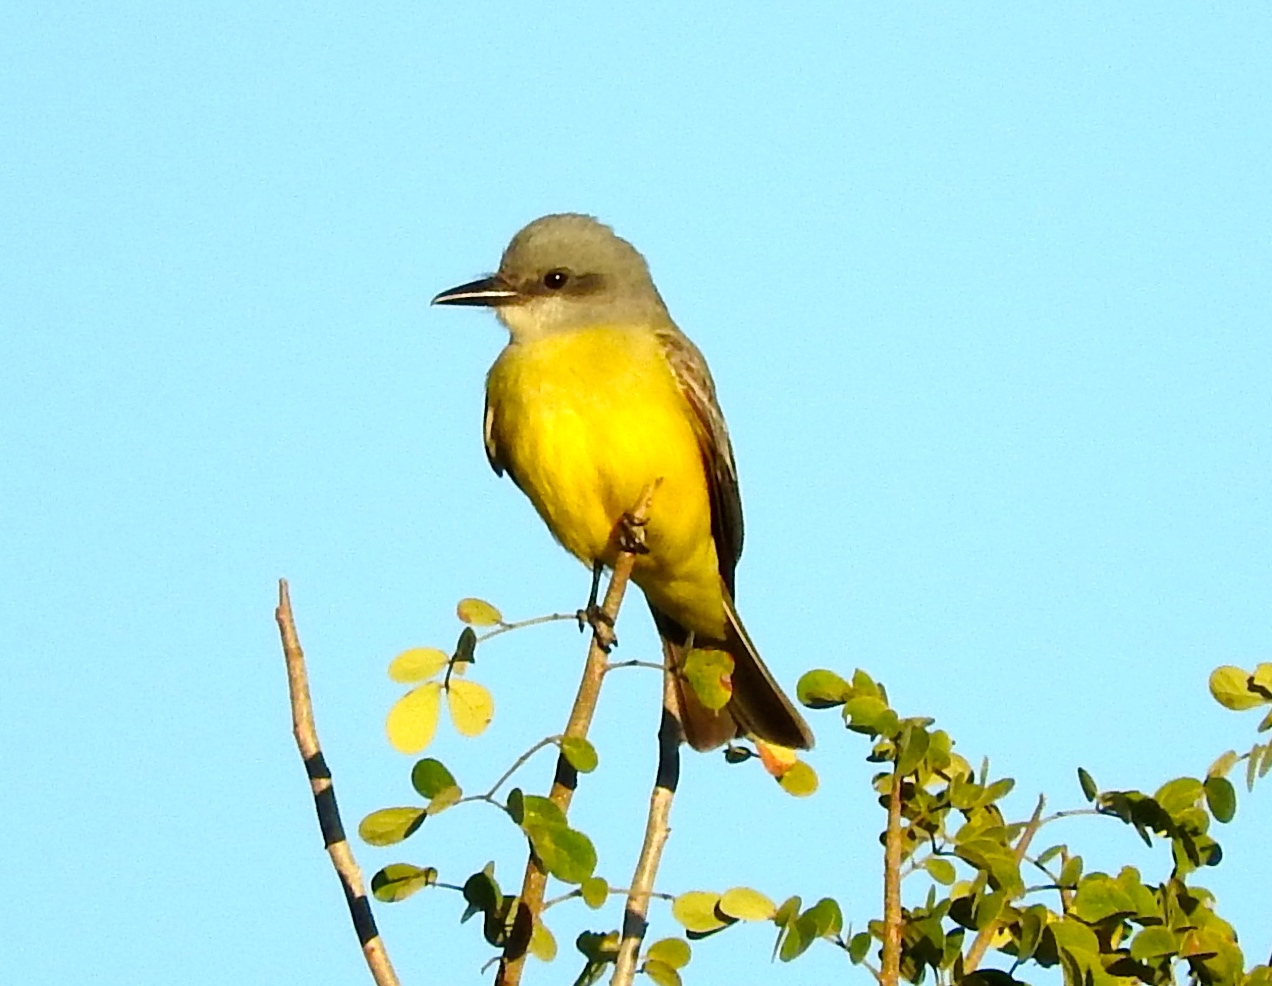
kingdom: Animalia
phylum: Chordata
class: Aves
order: Passeriformes
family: Tyrannidae
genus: Tyrannus
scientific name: Tyrannus melancholicus
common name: Tropical kingbird
